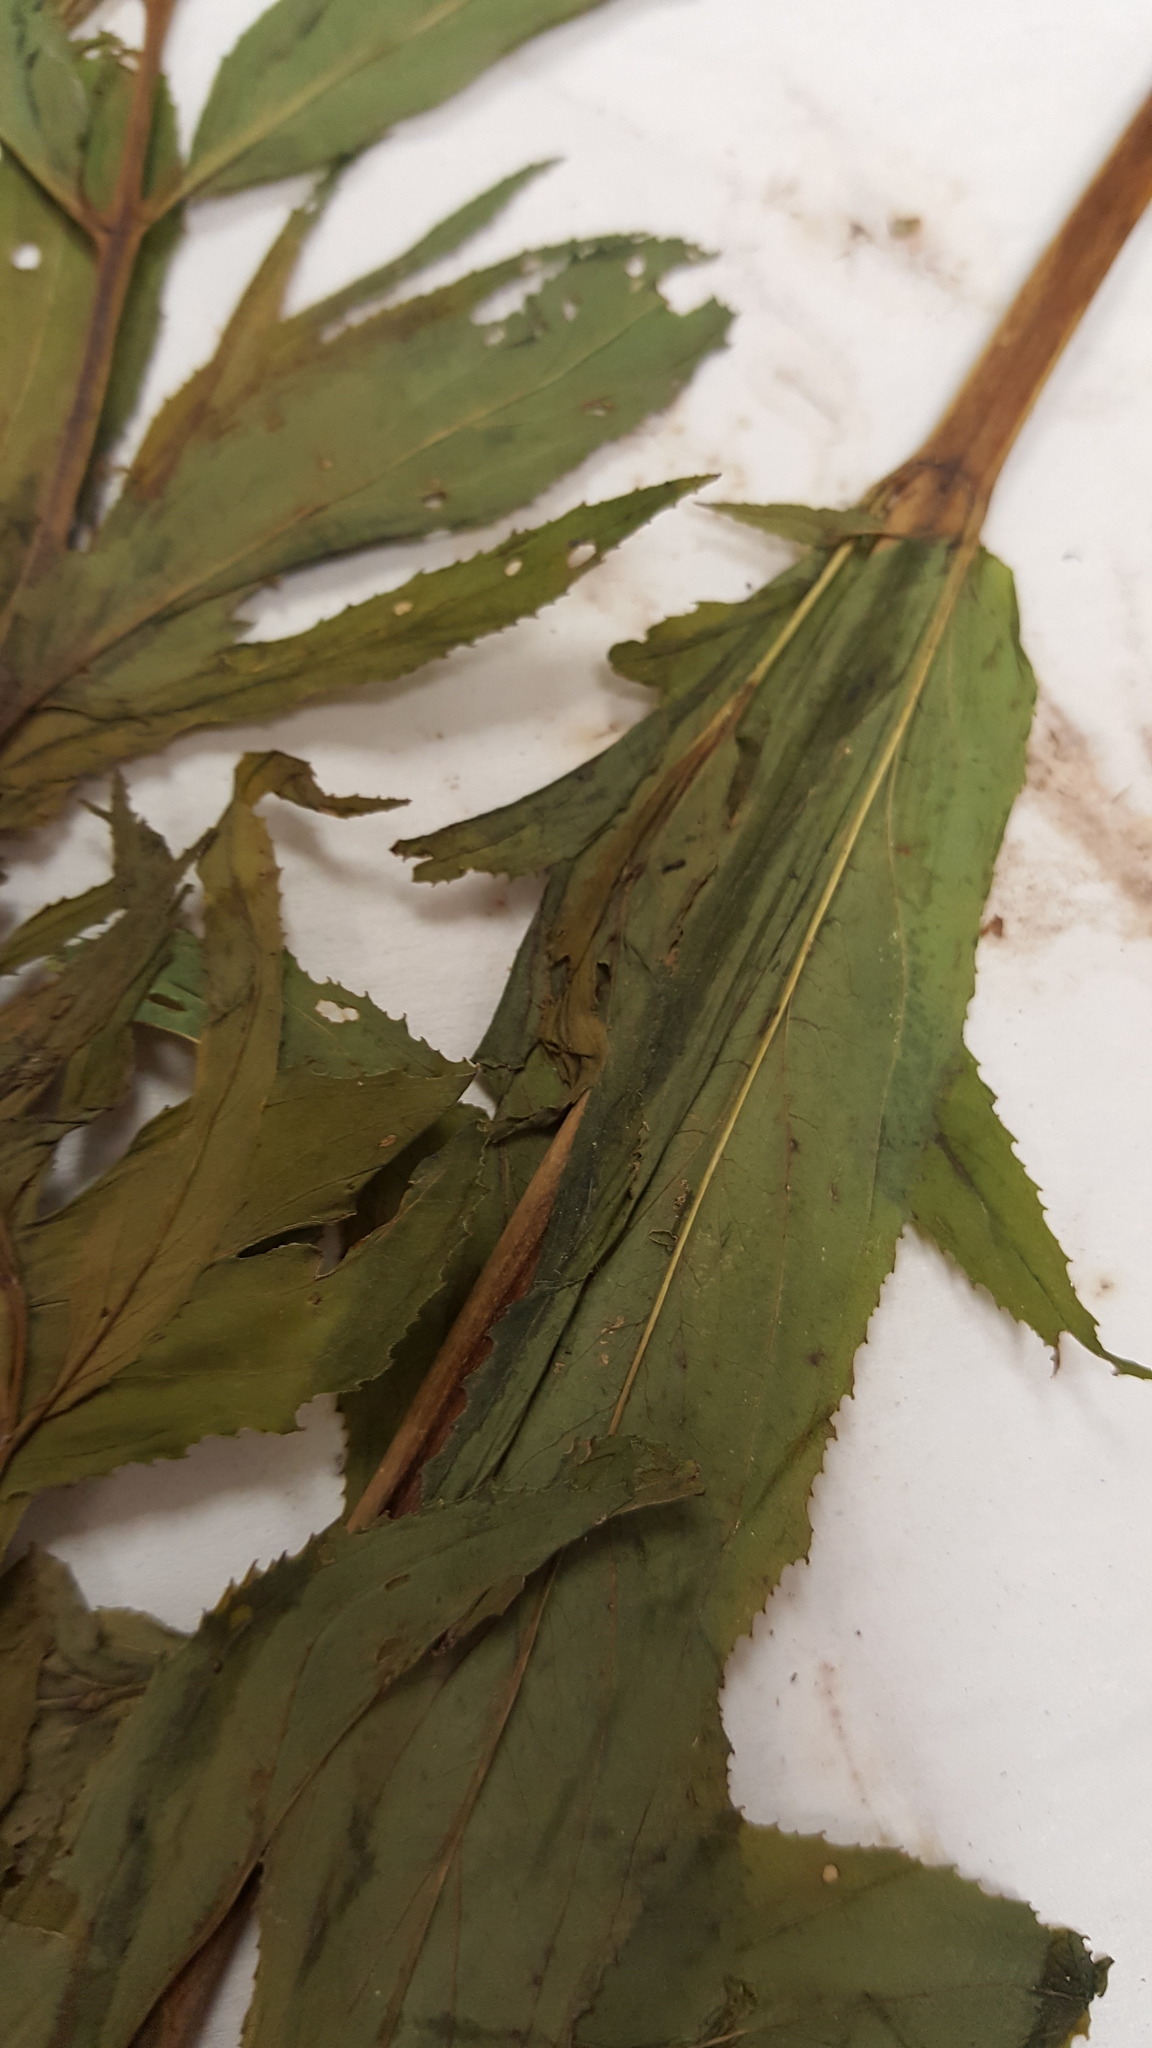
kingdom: Plantae
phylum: Tracheophyta
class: Magnoliopsida
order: Myrtales
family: Onagraceae
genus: Epilobium
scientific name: Epilobium coloratum
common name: Bronze willowherb
